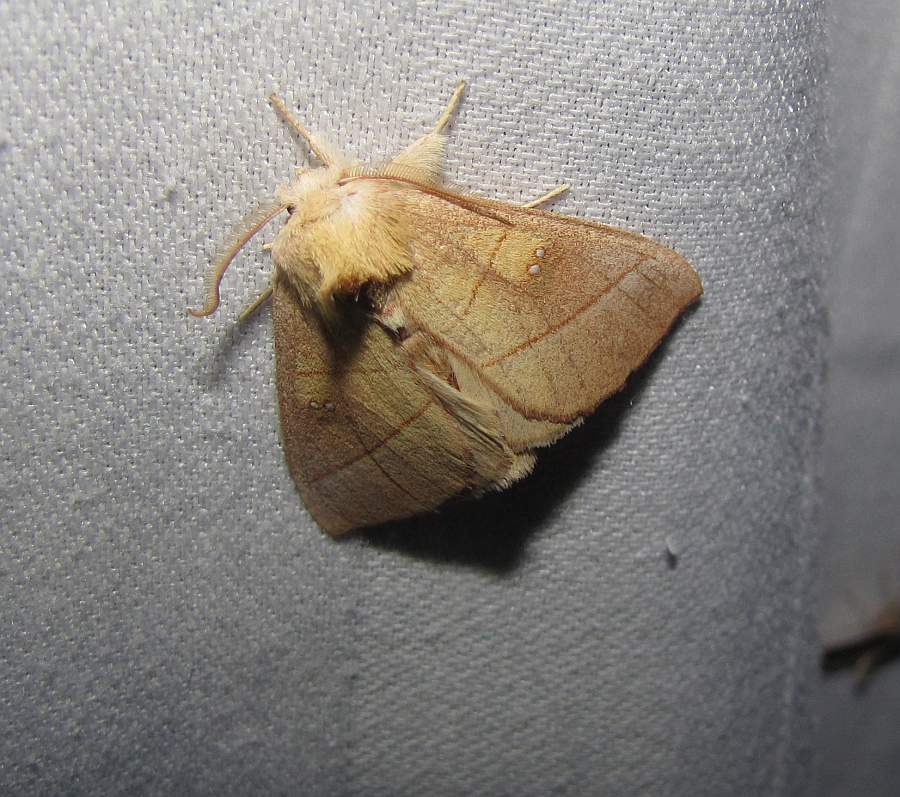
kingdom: Animalia
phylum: Arthropoda
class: Insecta
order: Lepidoptera
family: Notodontidae
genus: Nadata
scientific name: Nadata gibbosa
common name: White-dotted prominent
